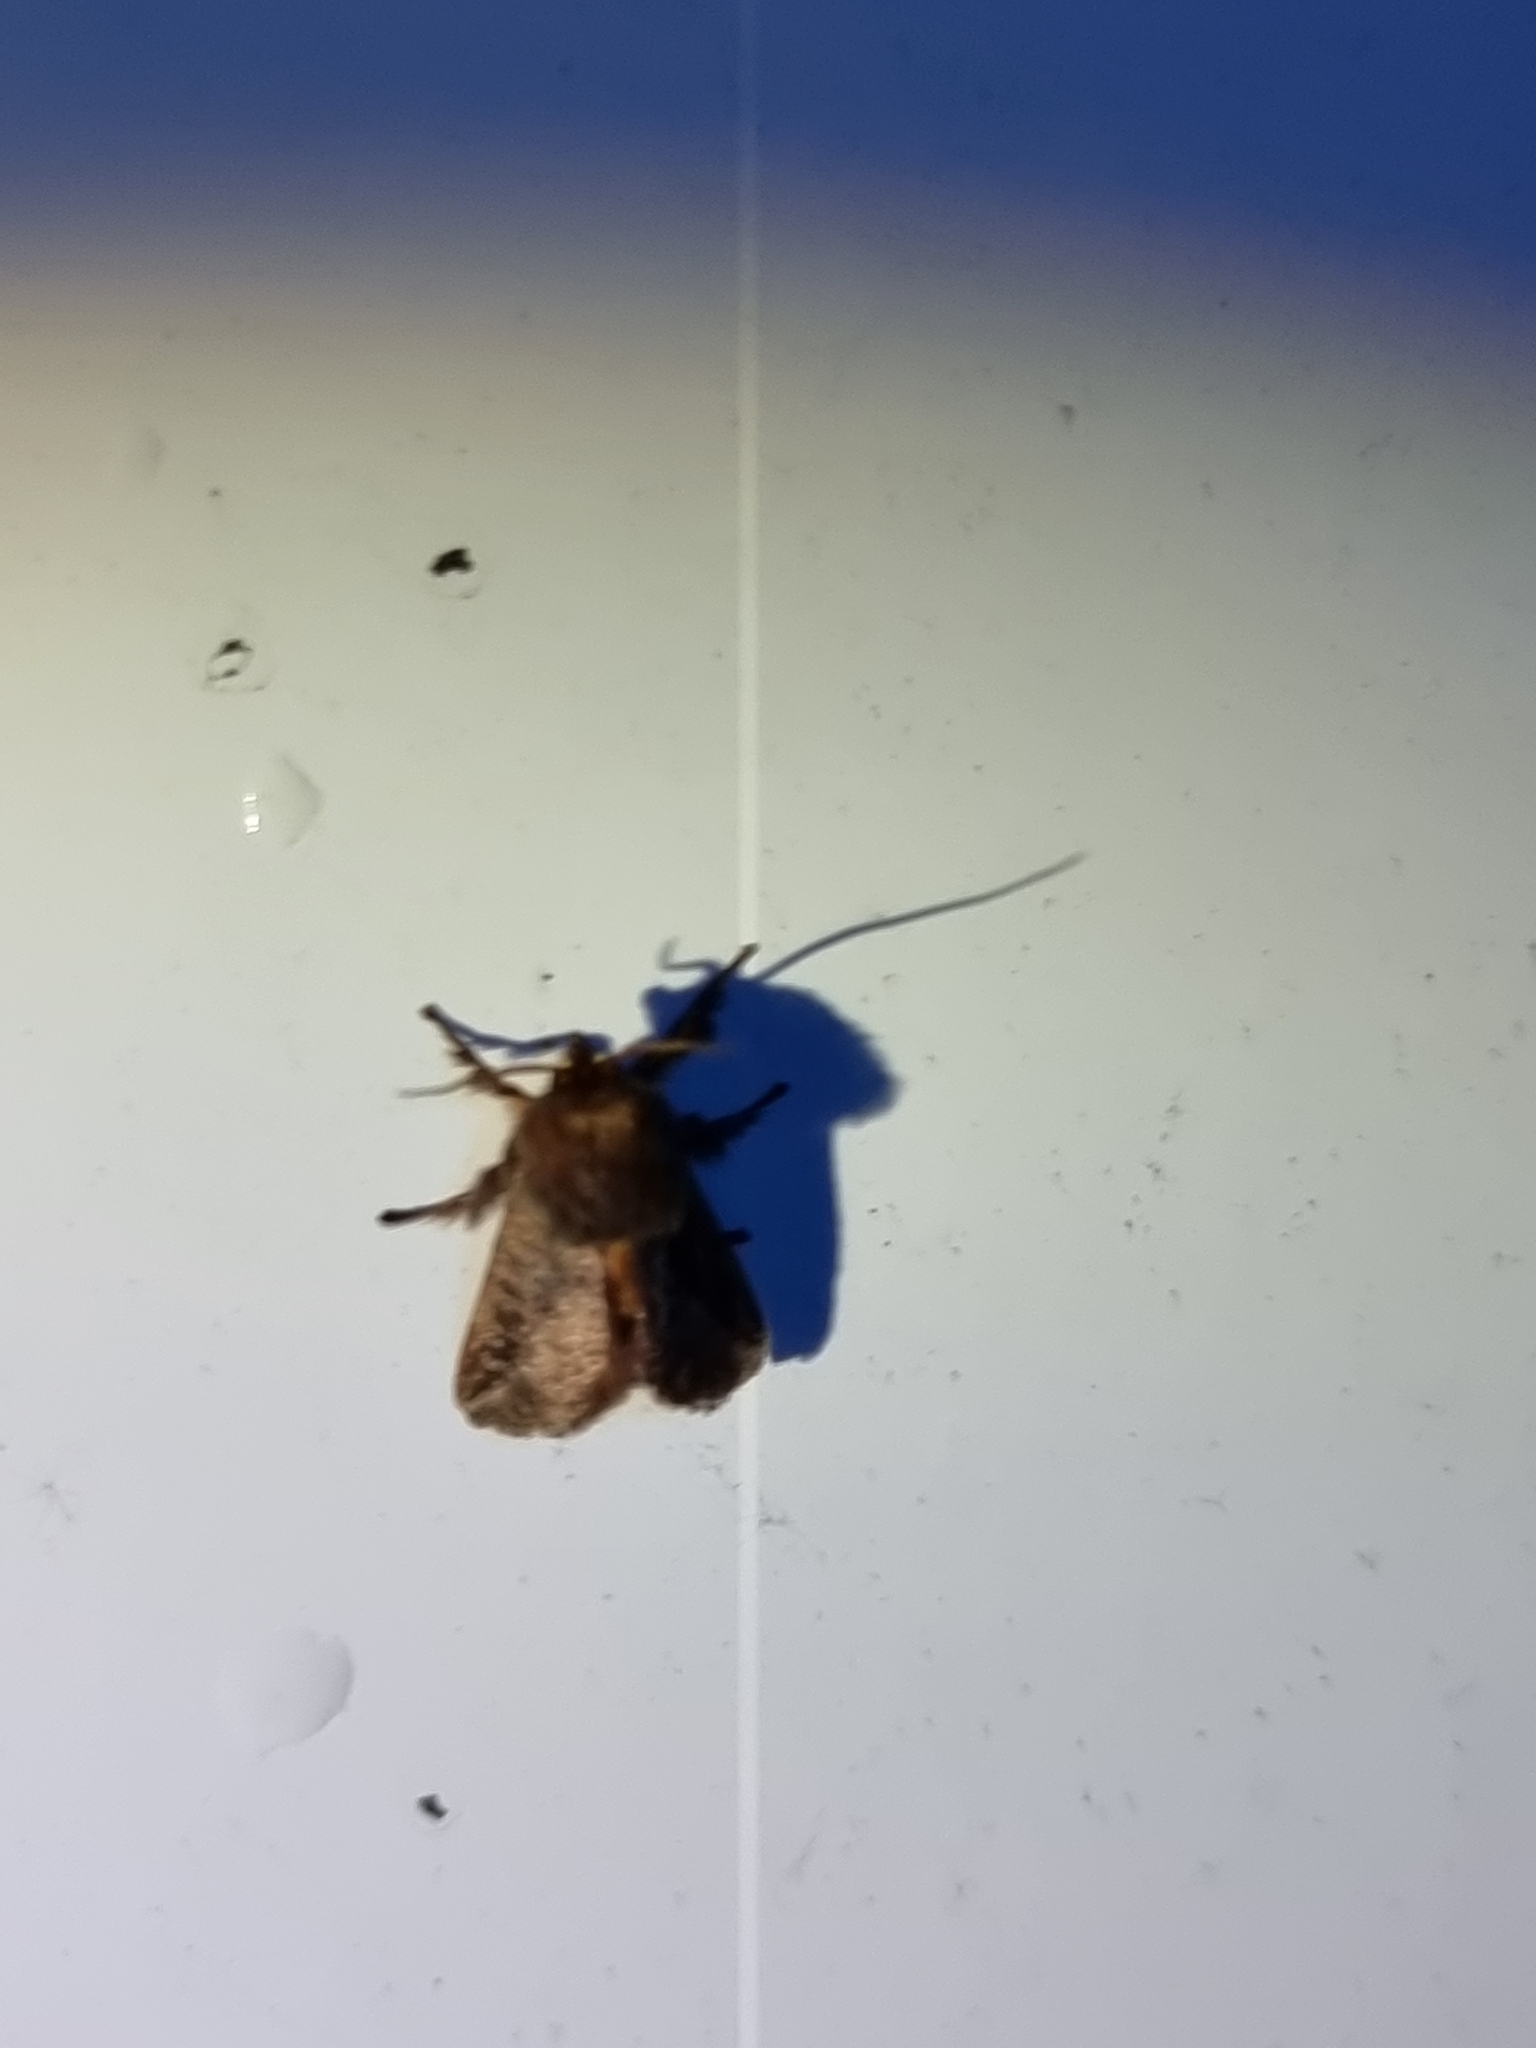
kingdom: Animalia
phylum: Arthropoda
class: Insecta
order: Lepidoptera
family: Limacodidae
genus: Doratifera
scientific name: Doratifera stenora
